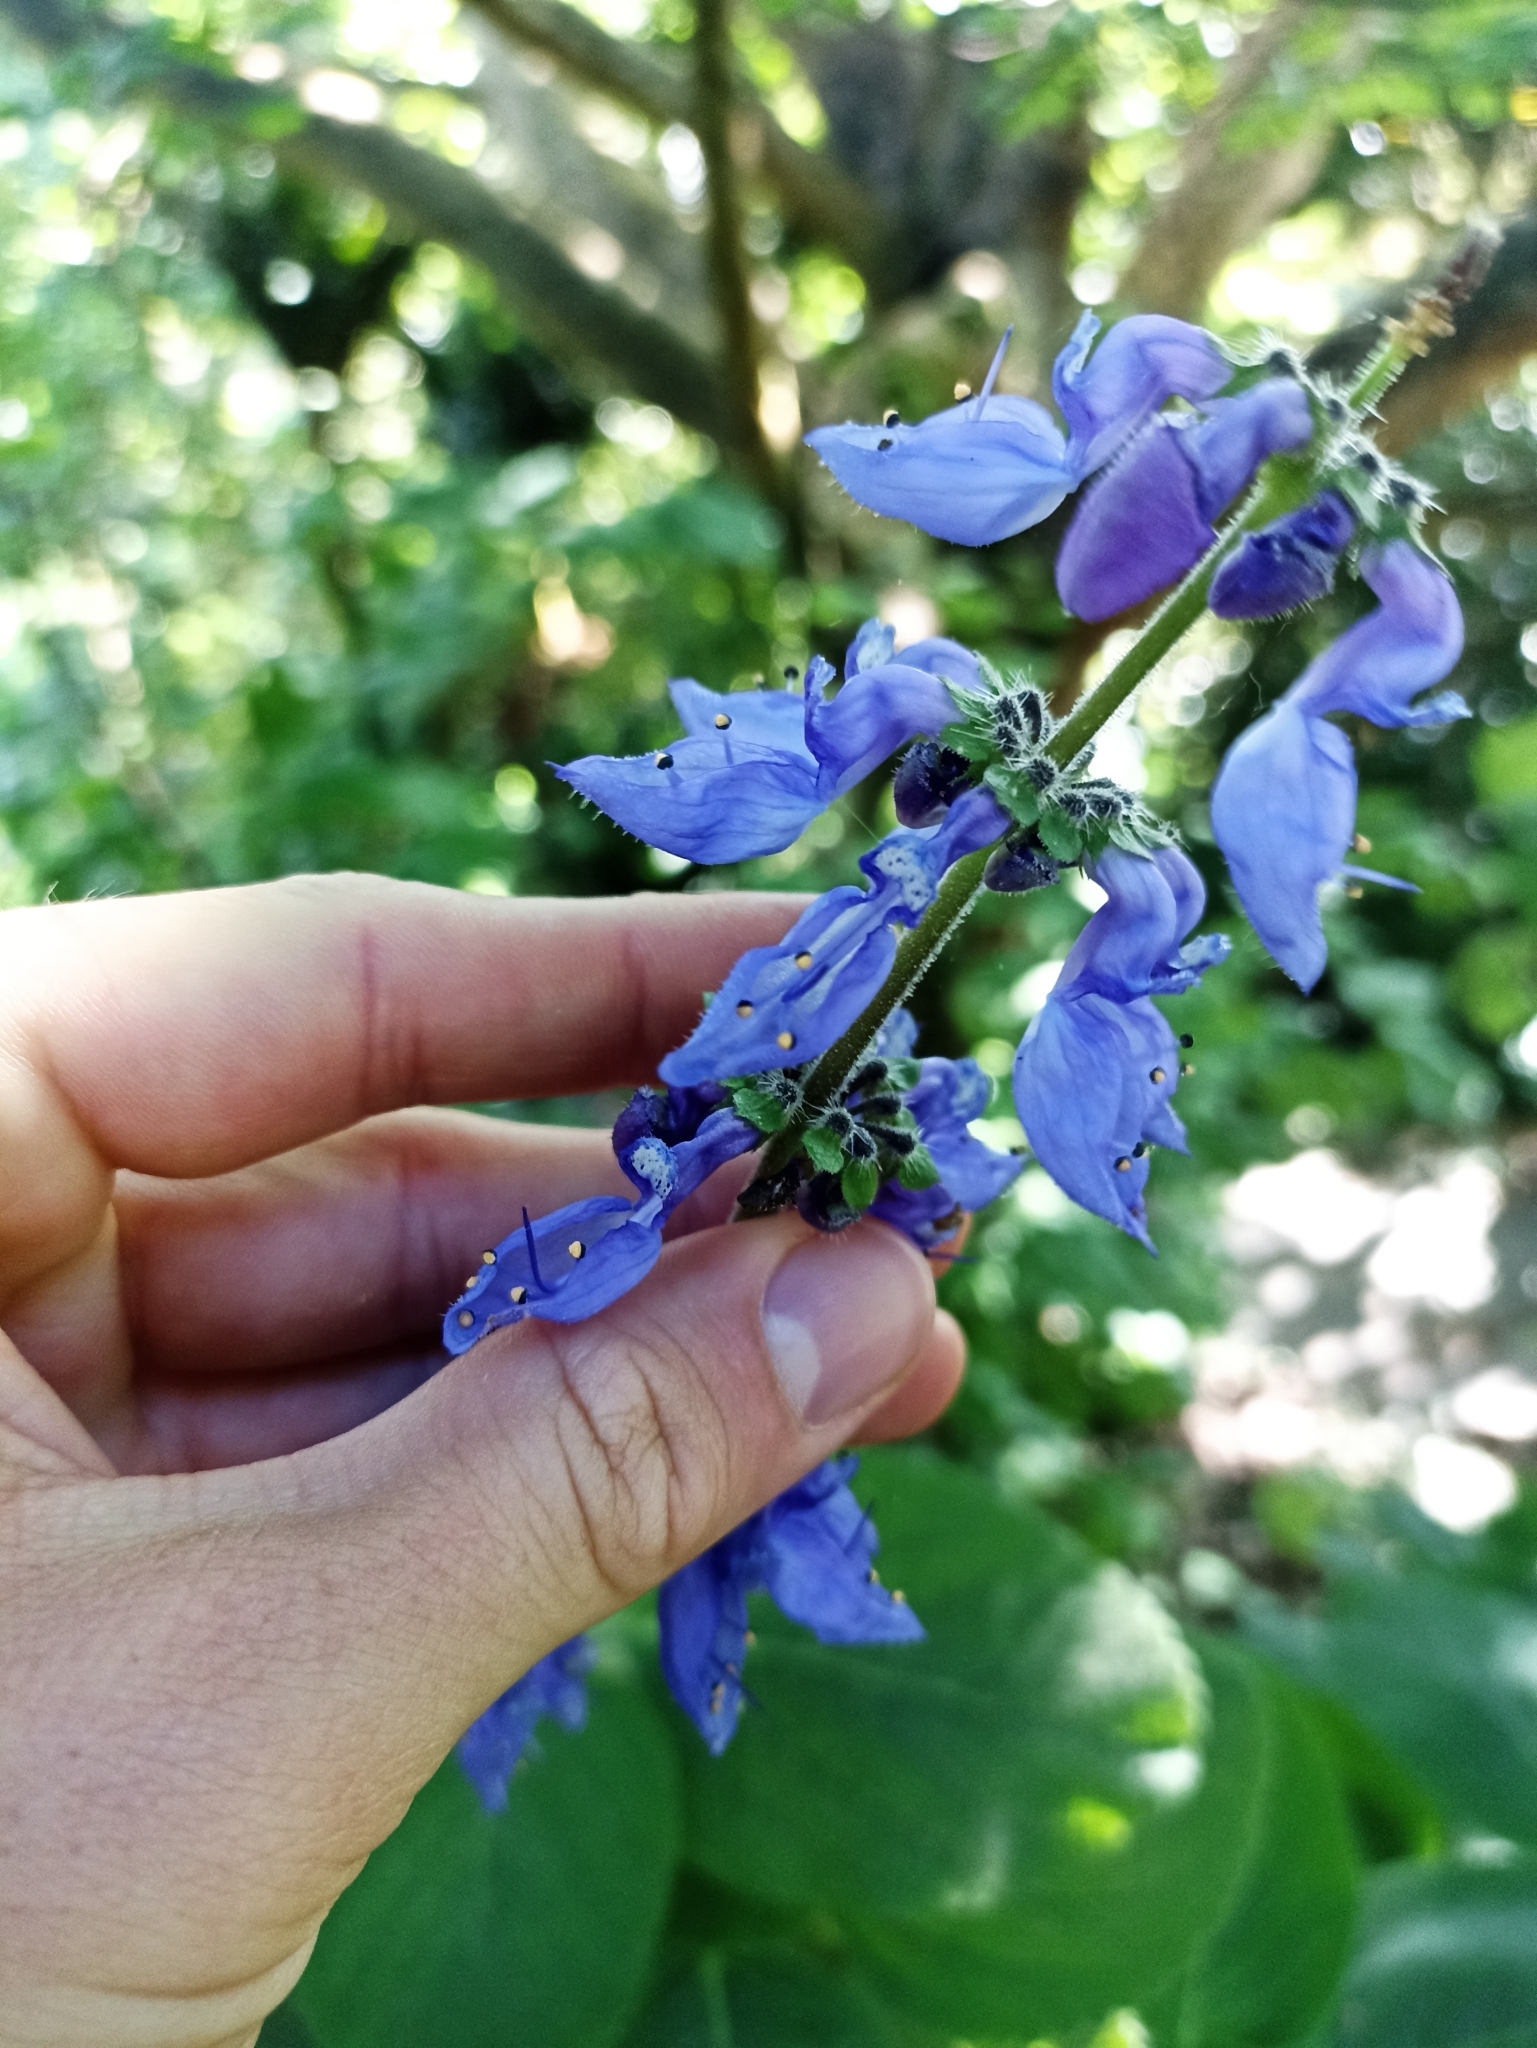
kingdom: Plantae
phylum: Tracheophyta
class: Magnoliopsida
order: Lamiales
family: Lamiaceae
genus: Coleus
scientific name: Coleus barbatus
